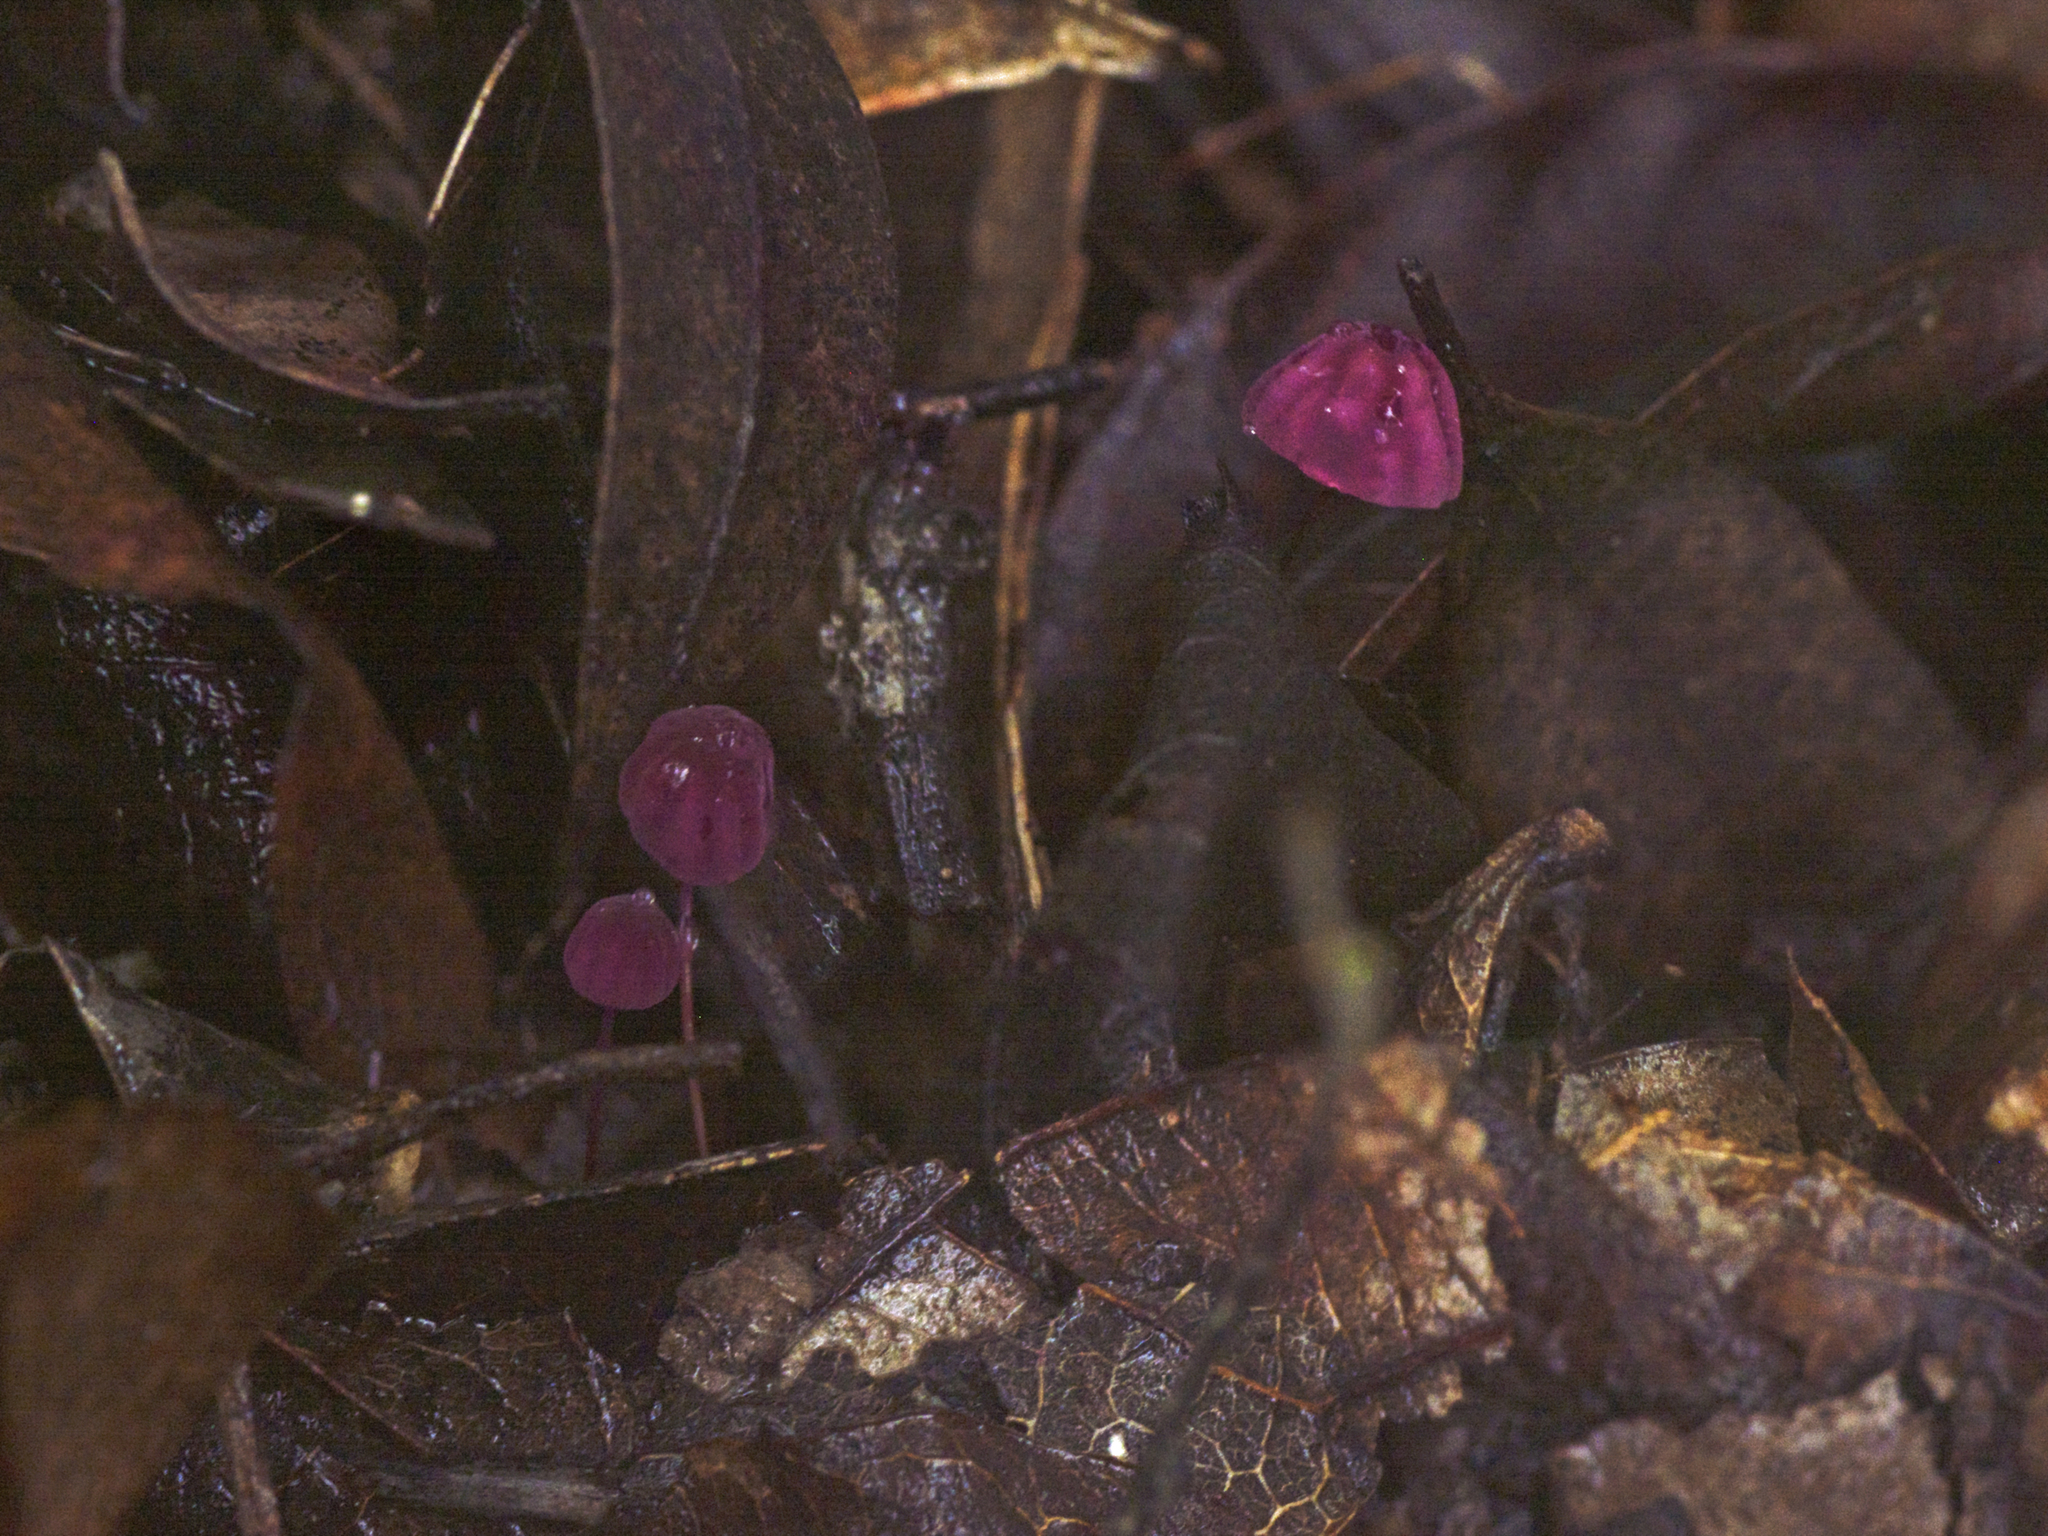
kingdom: Fungi
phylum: Basidiomycota
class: Agaricomycetes
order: Agaricales
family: Marasmiaceae
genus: Marasmius
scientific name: Marasmius haematocephalus
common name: Purple pinwheel
